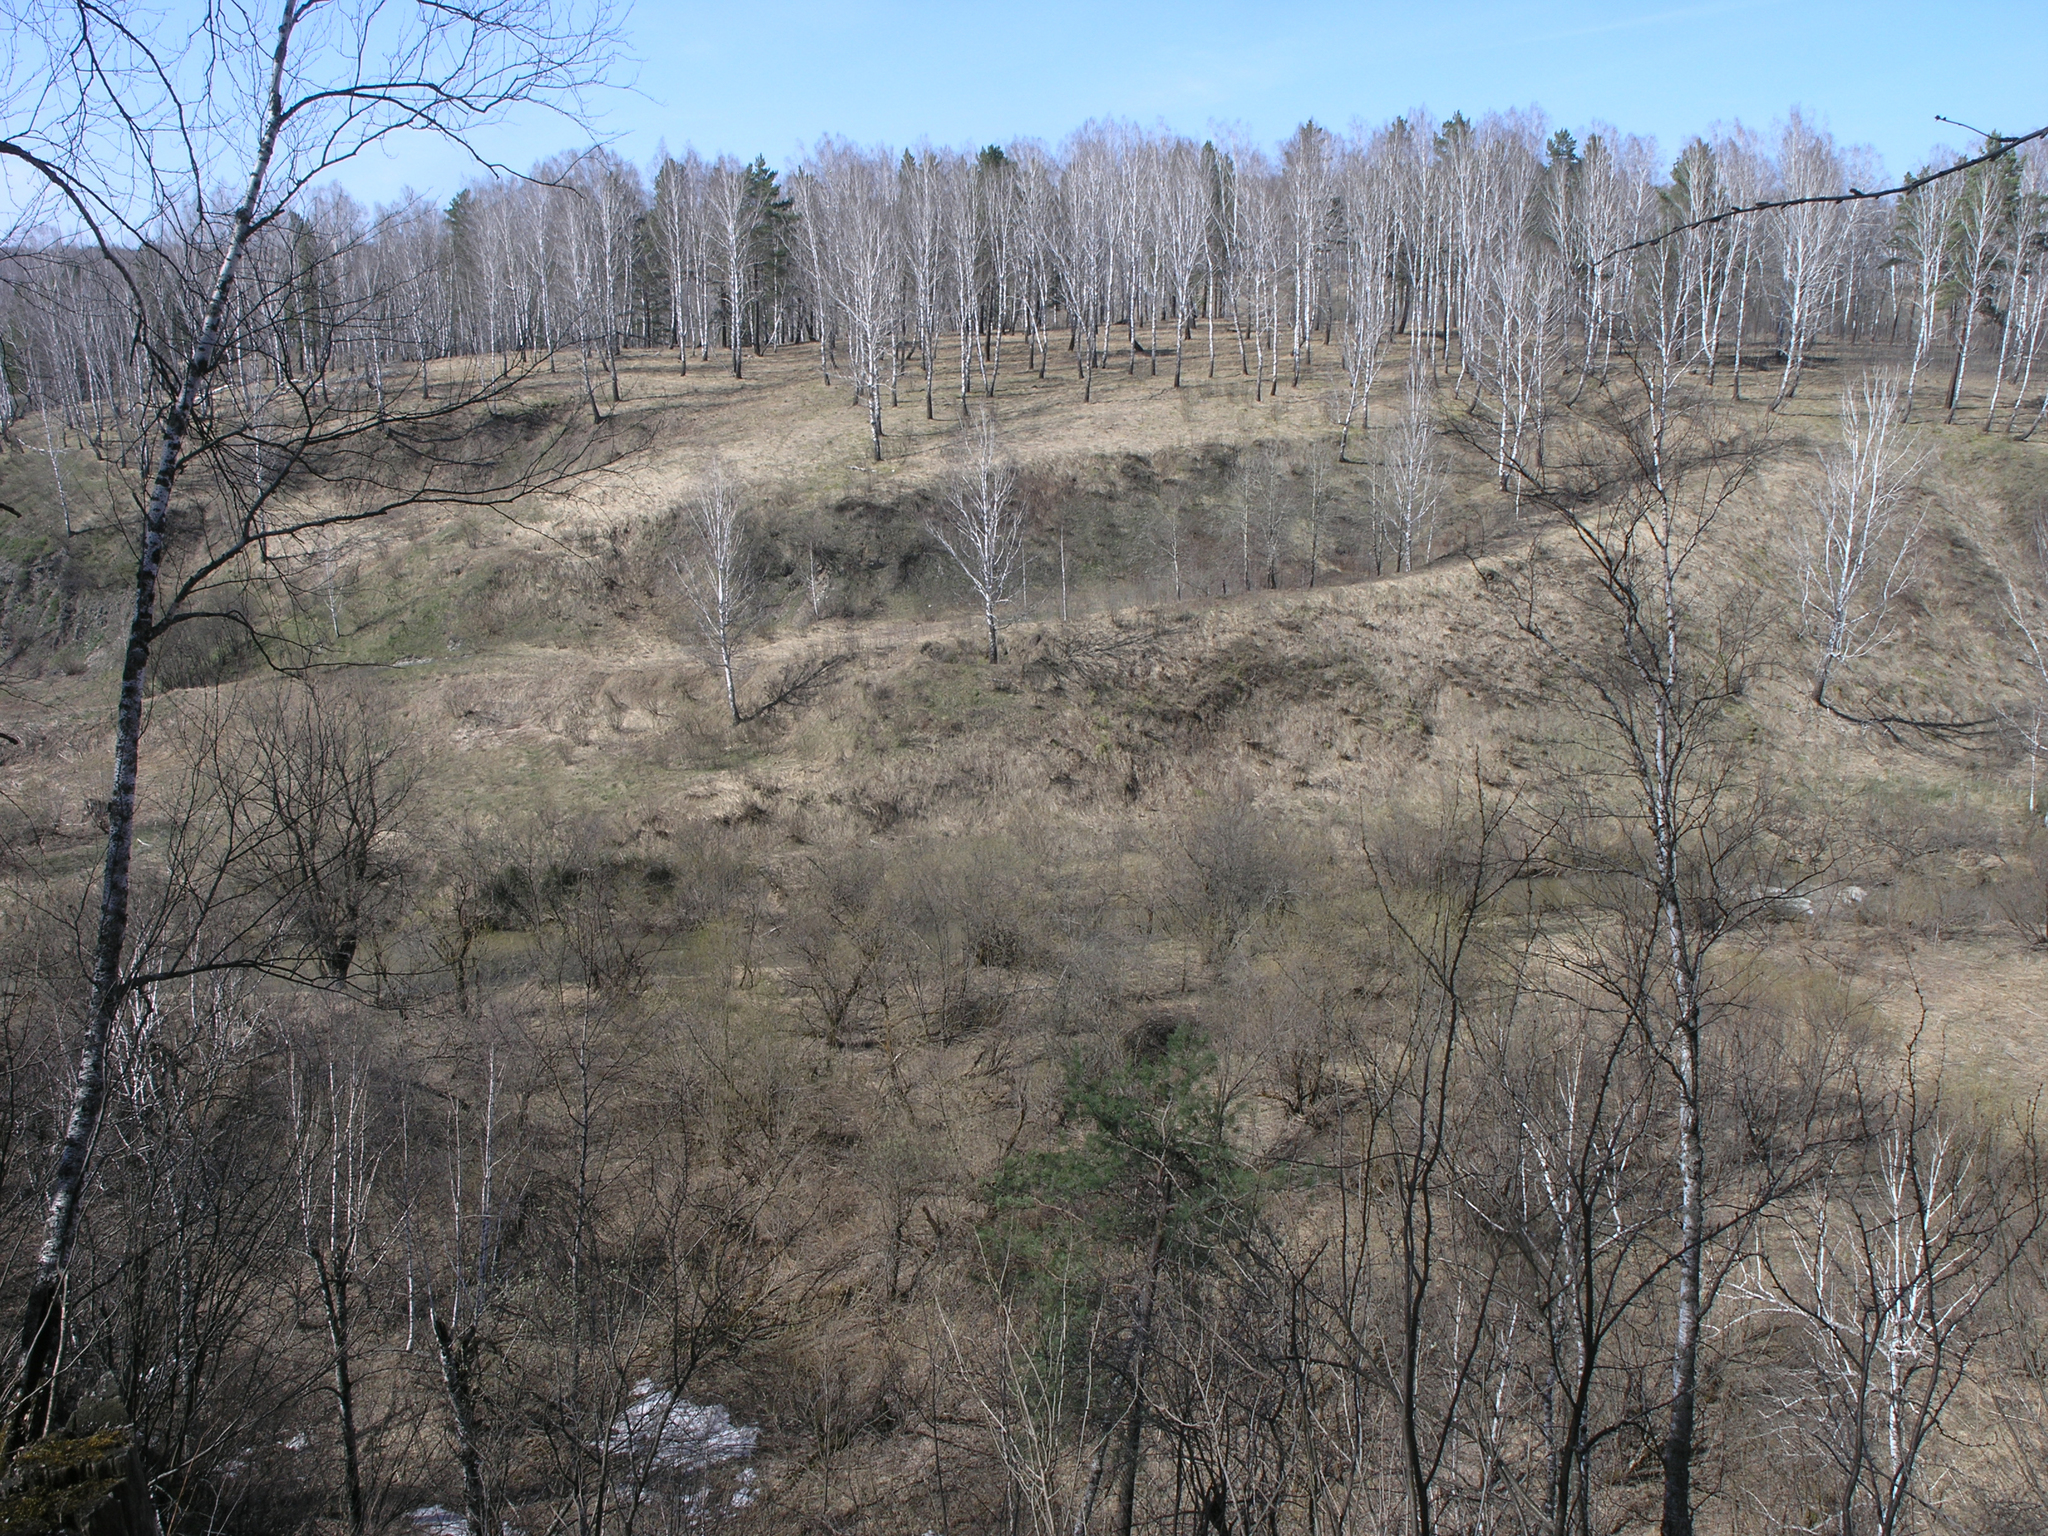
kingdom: Plantae
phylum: Tracheophyta
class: Magnoliopsida
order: Fagales
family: Betulaceae
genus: Betula
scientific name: Betula pendula
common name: Silver birch
